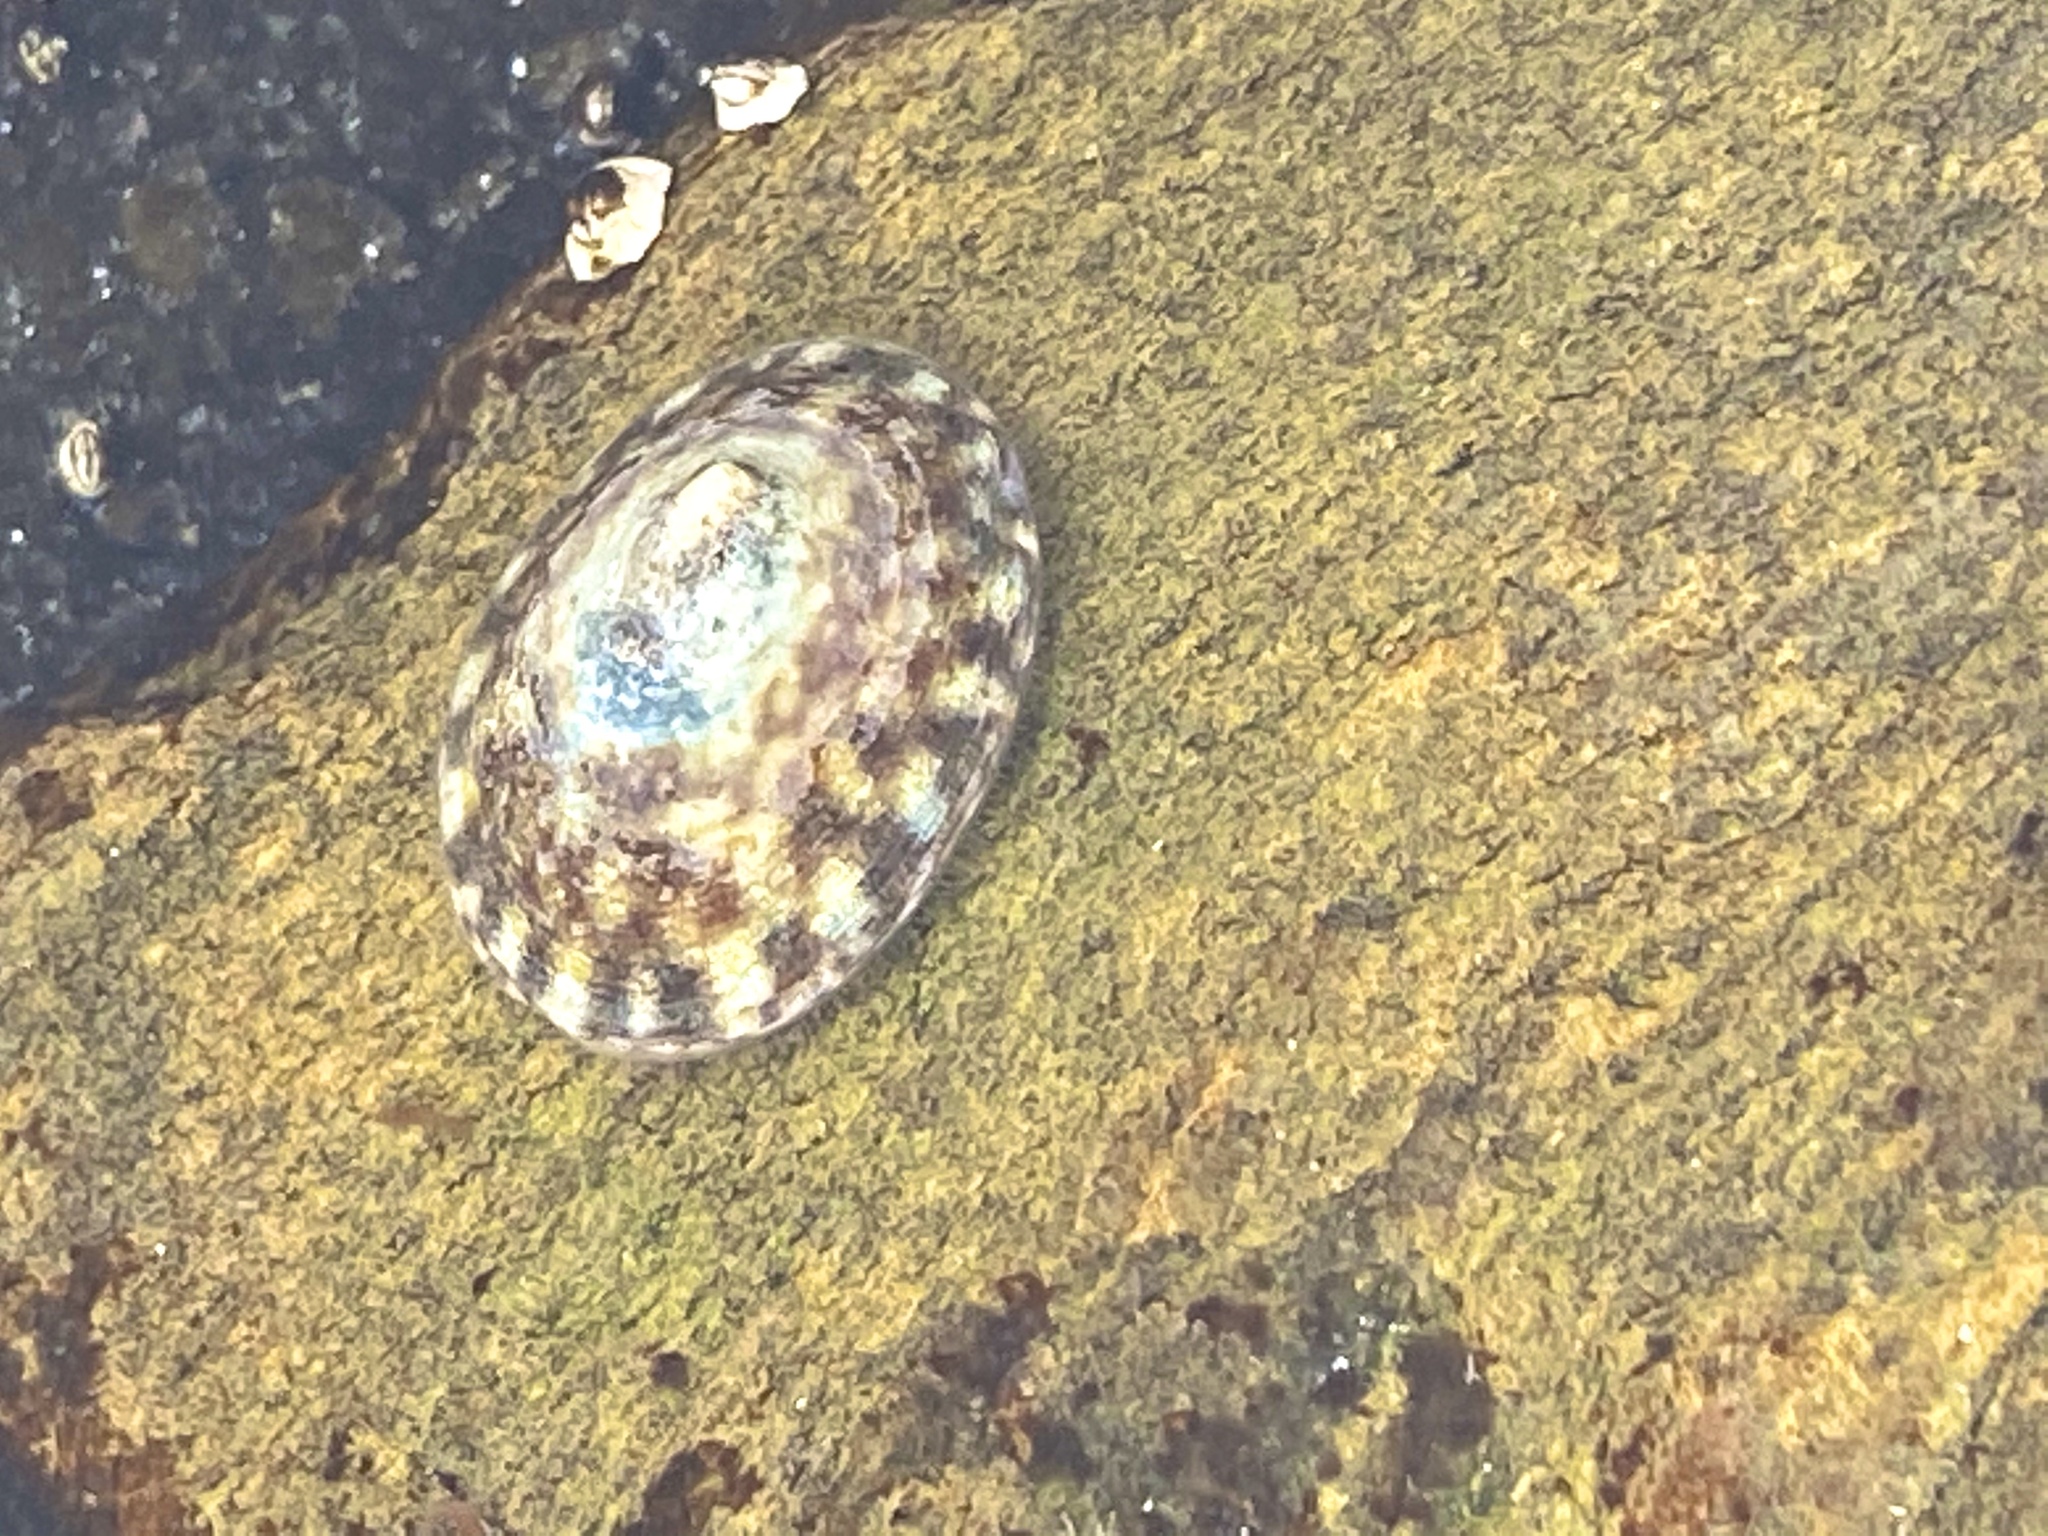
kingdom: Animalia
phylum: Mollusca
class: Gastropoda
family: Lottiidae
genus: Testudinalia
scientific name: Testudinalia testudinalis
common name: Common tortoiseshell limpet
